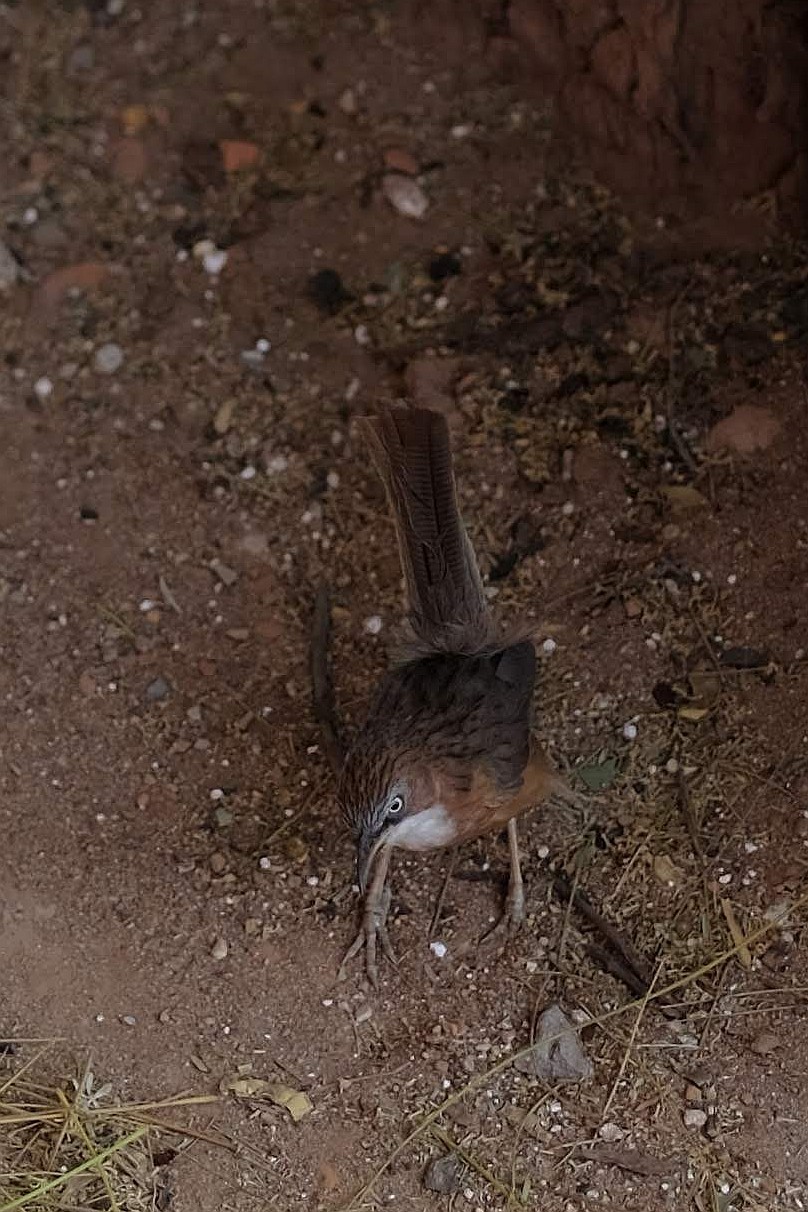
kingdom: Animalia
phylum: Chordata
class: Aves
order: Passeriformes
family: Leiothrichidae
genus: Turdoides
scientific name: Turdoides gularis
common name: White-throated babbler
